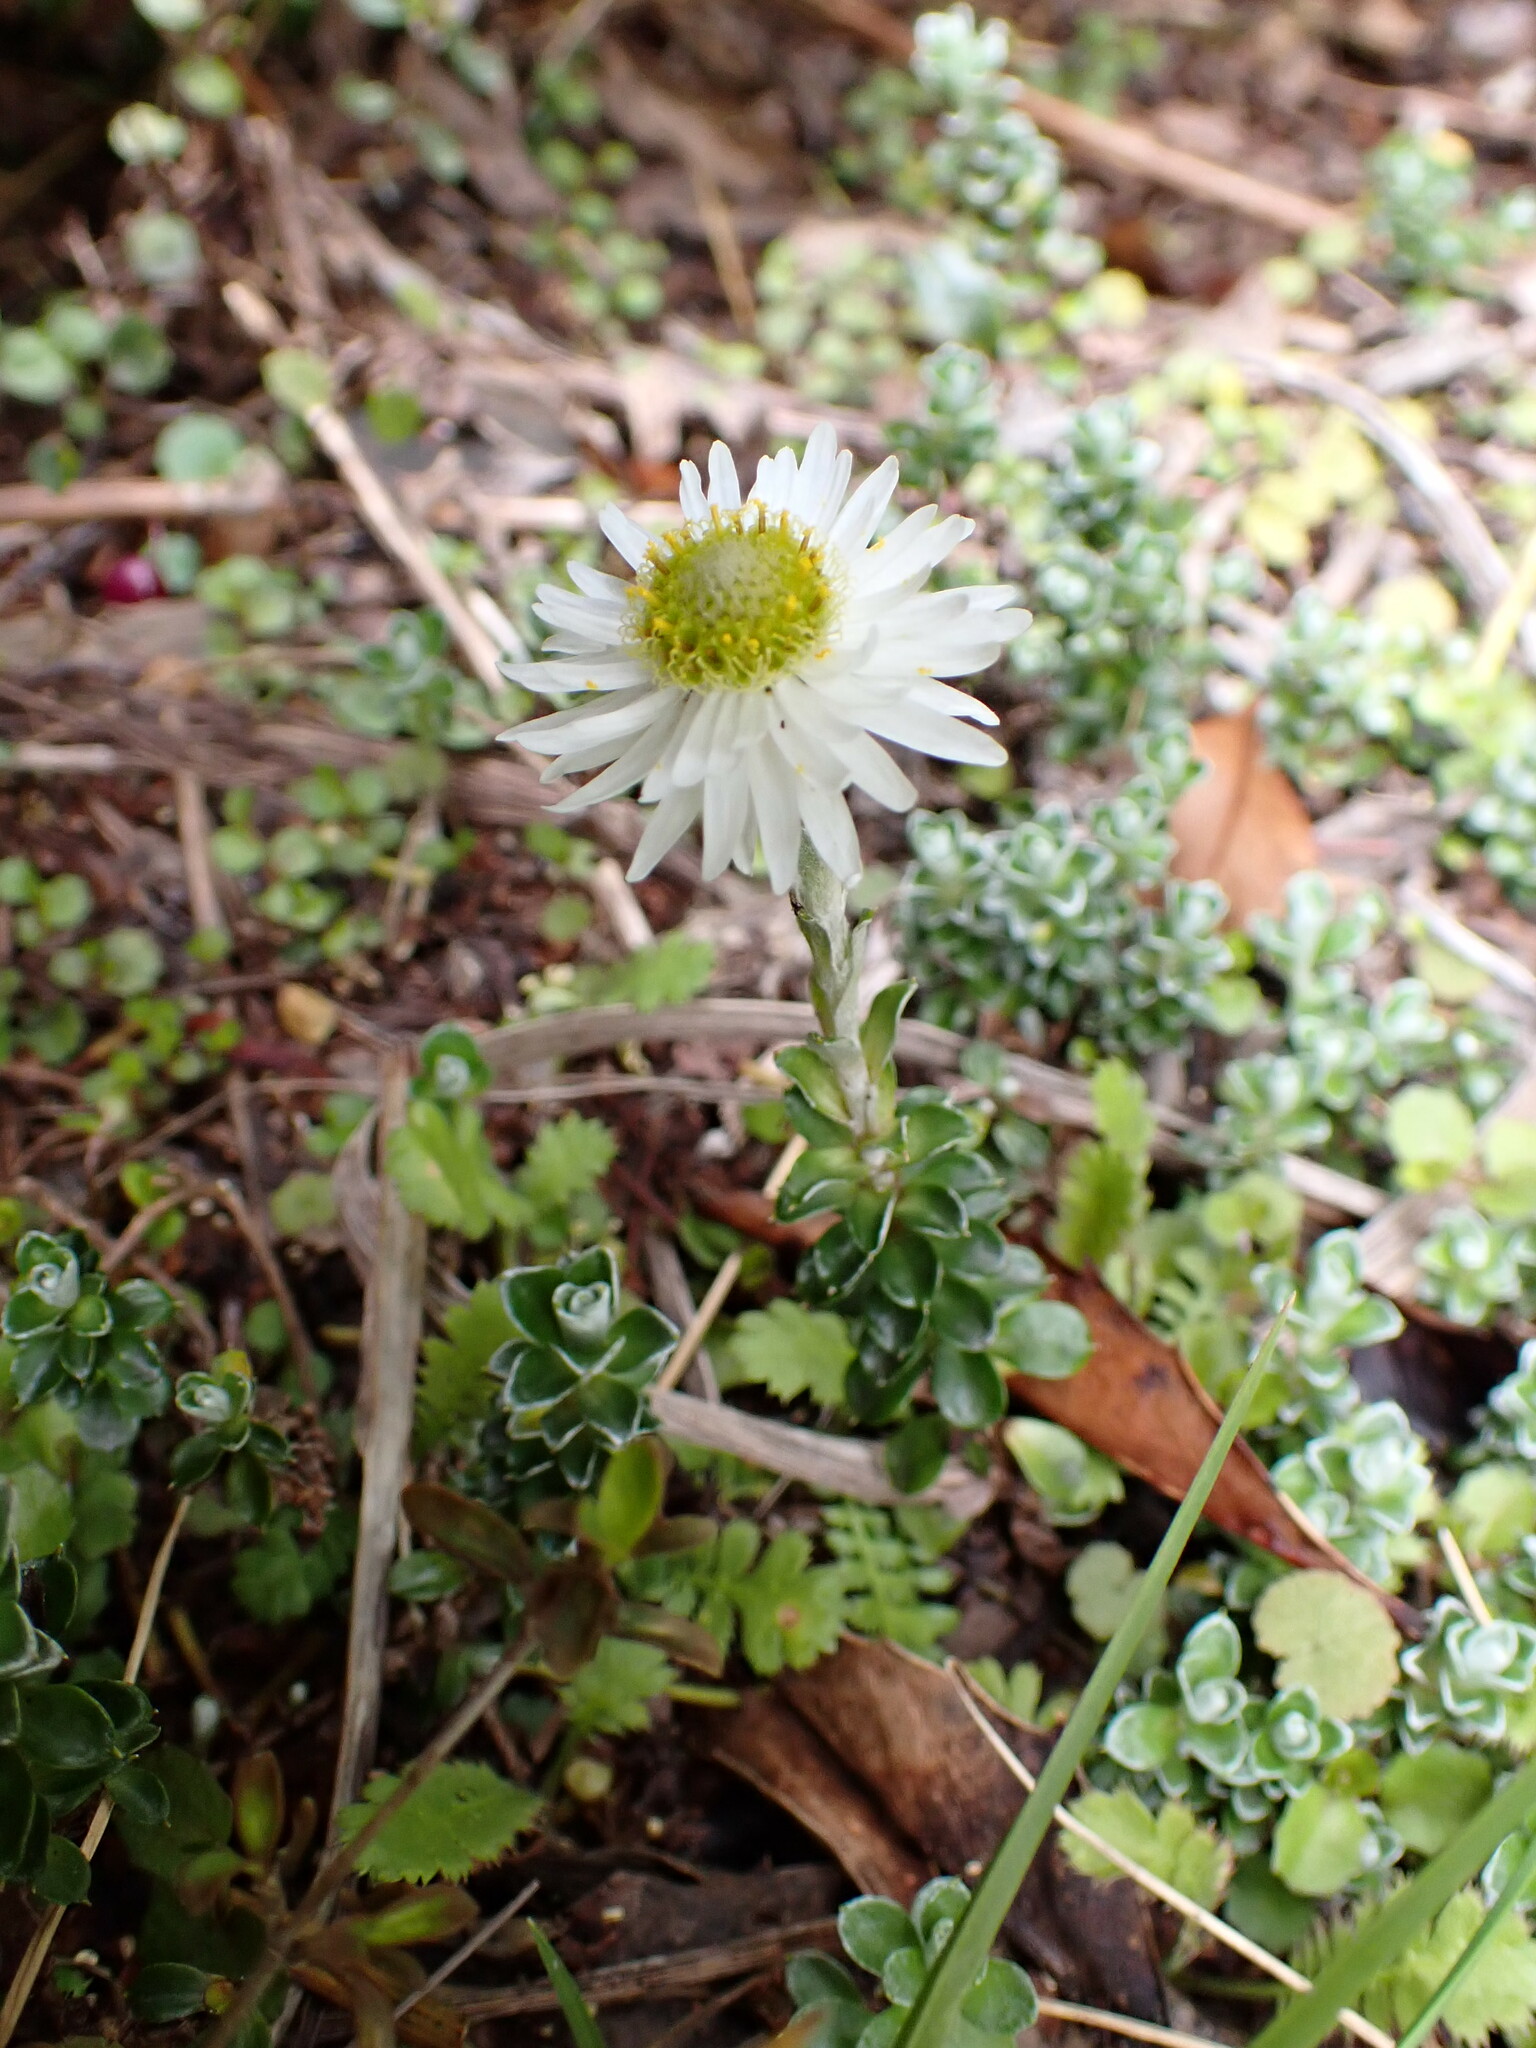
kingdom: Plantae
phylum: Tracheophyta
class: Magnoliopsida
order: Asterales
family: Asteraceae
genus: Anaphalioides
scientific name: Anaphalioides alpina
